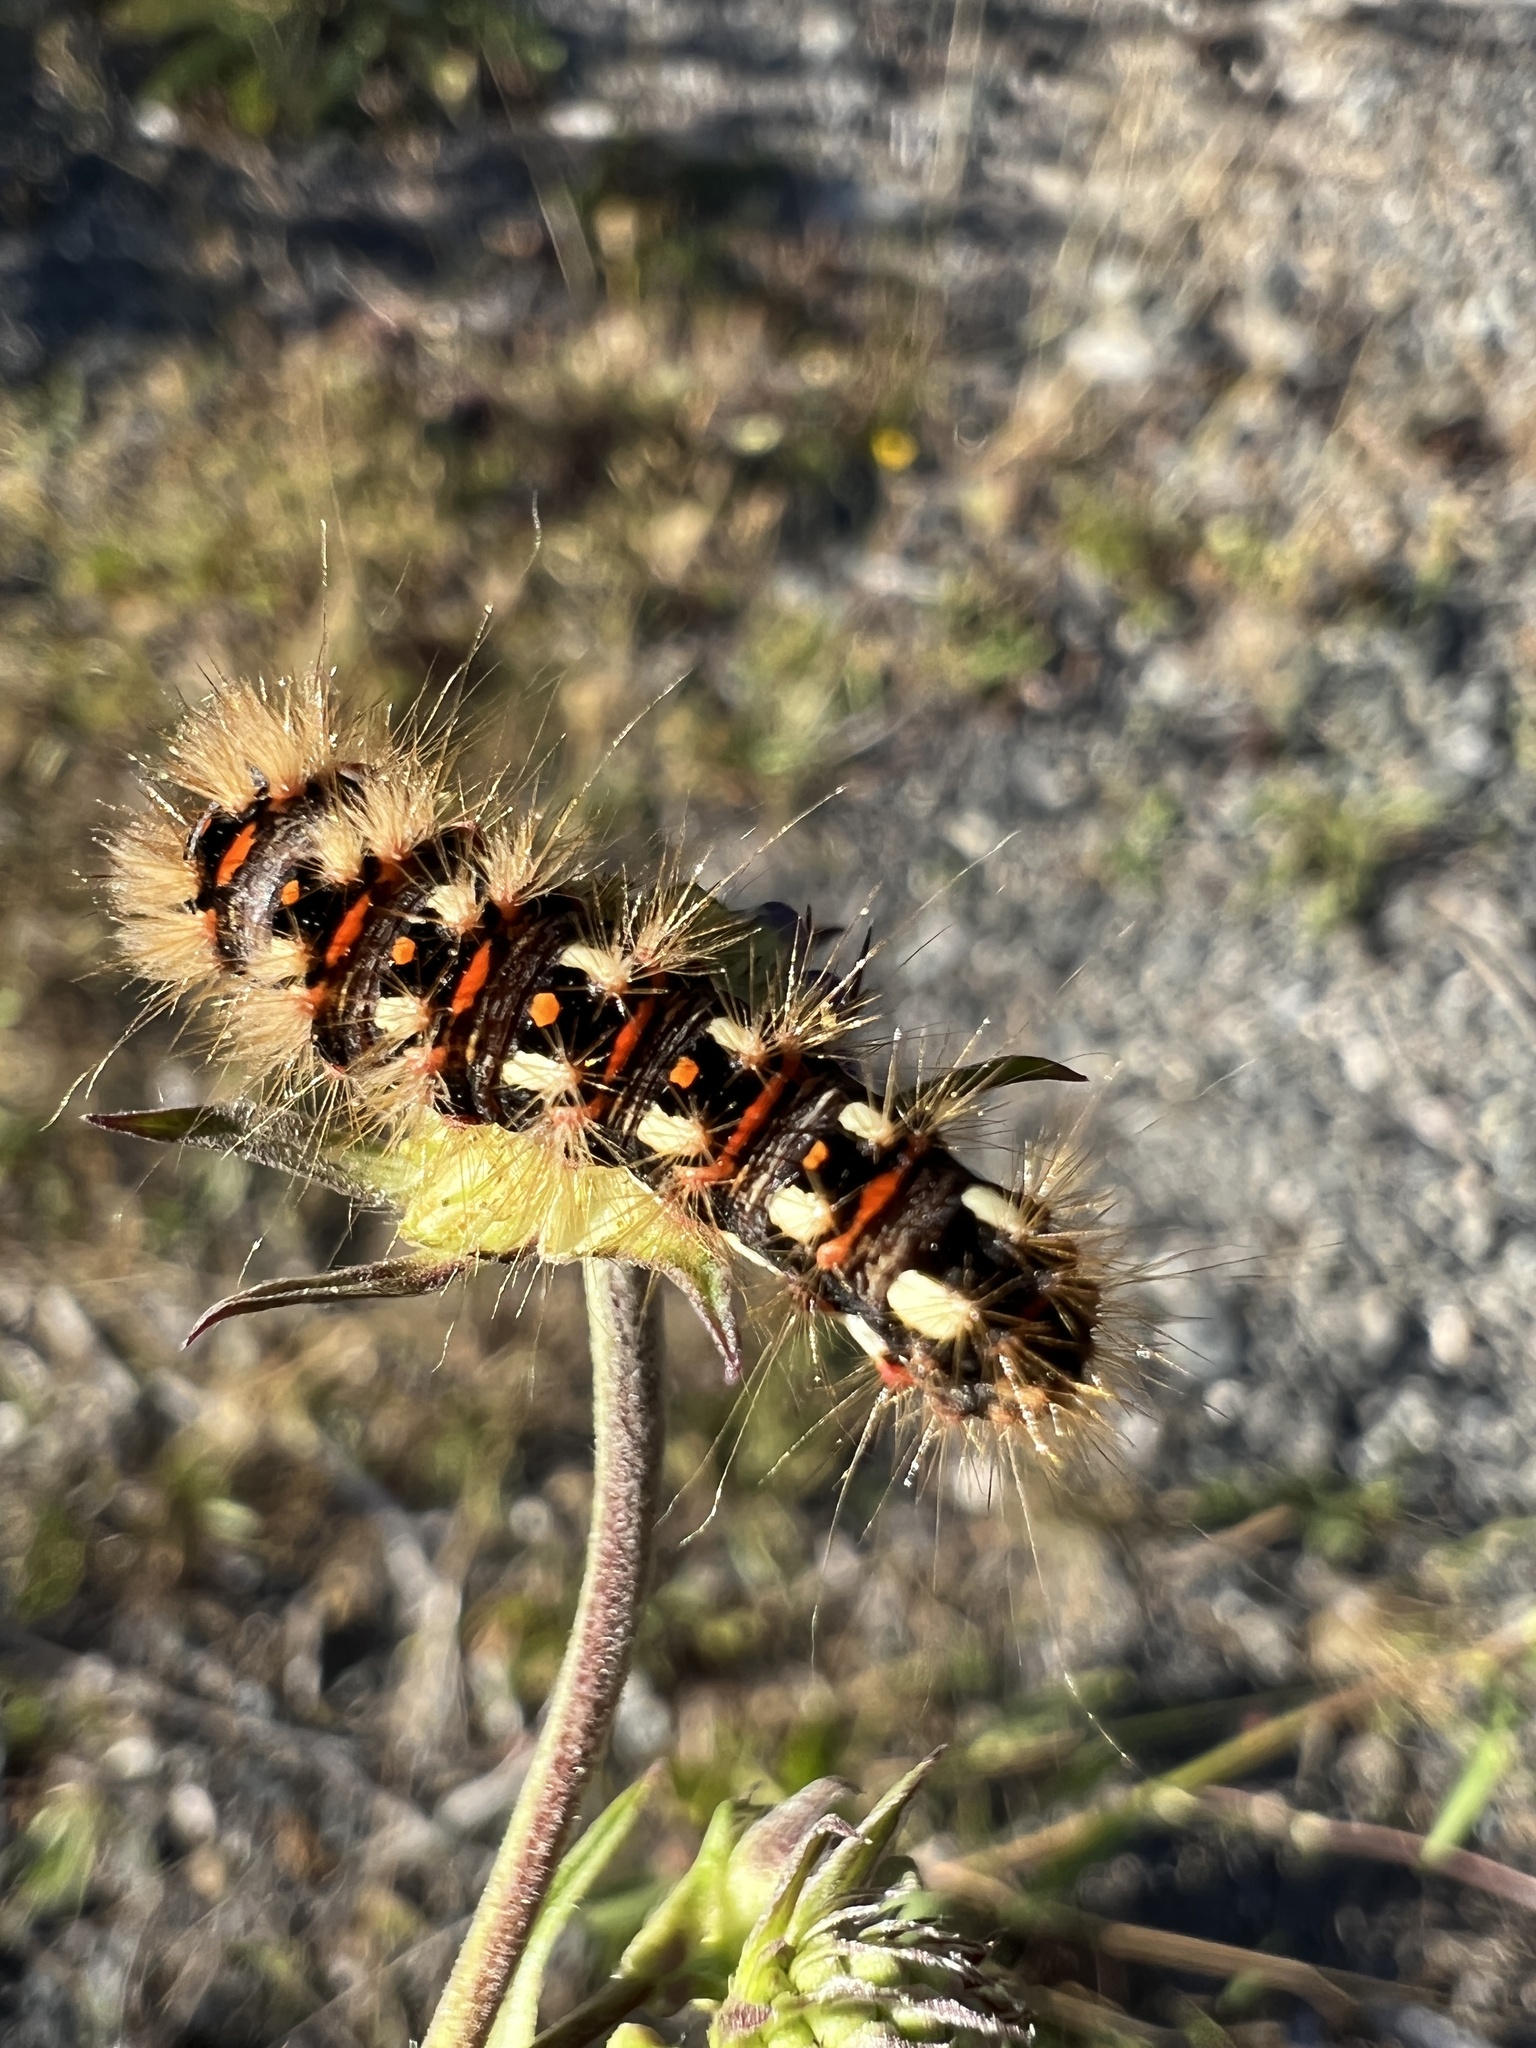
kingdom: Animalia
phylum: Arthropoda
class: Insecta
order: Lepidoptera
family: Noctuidae
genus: Acronicta
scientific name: Acronicta rumicis
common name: Knot grass
